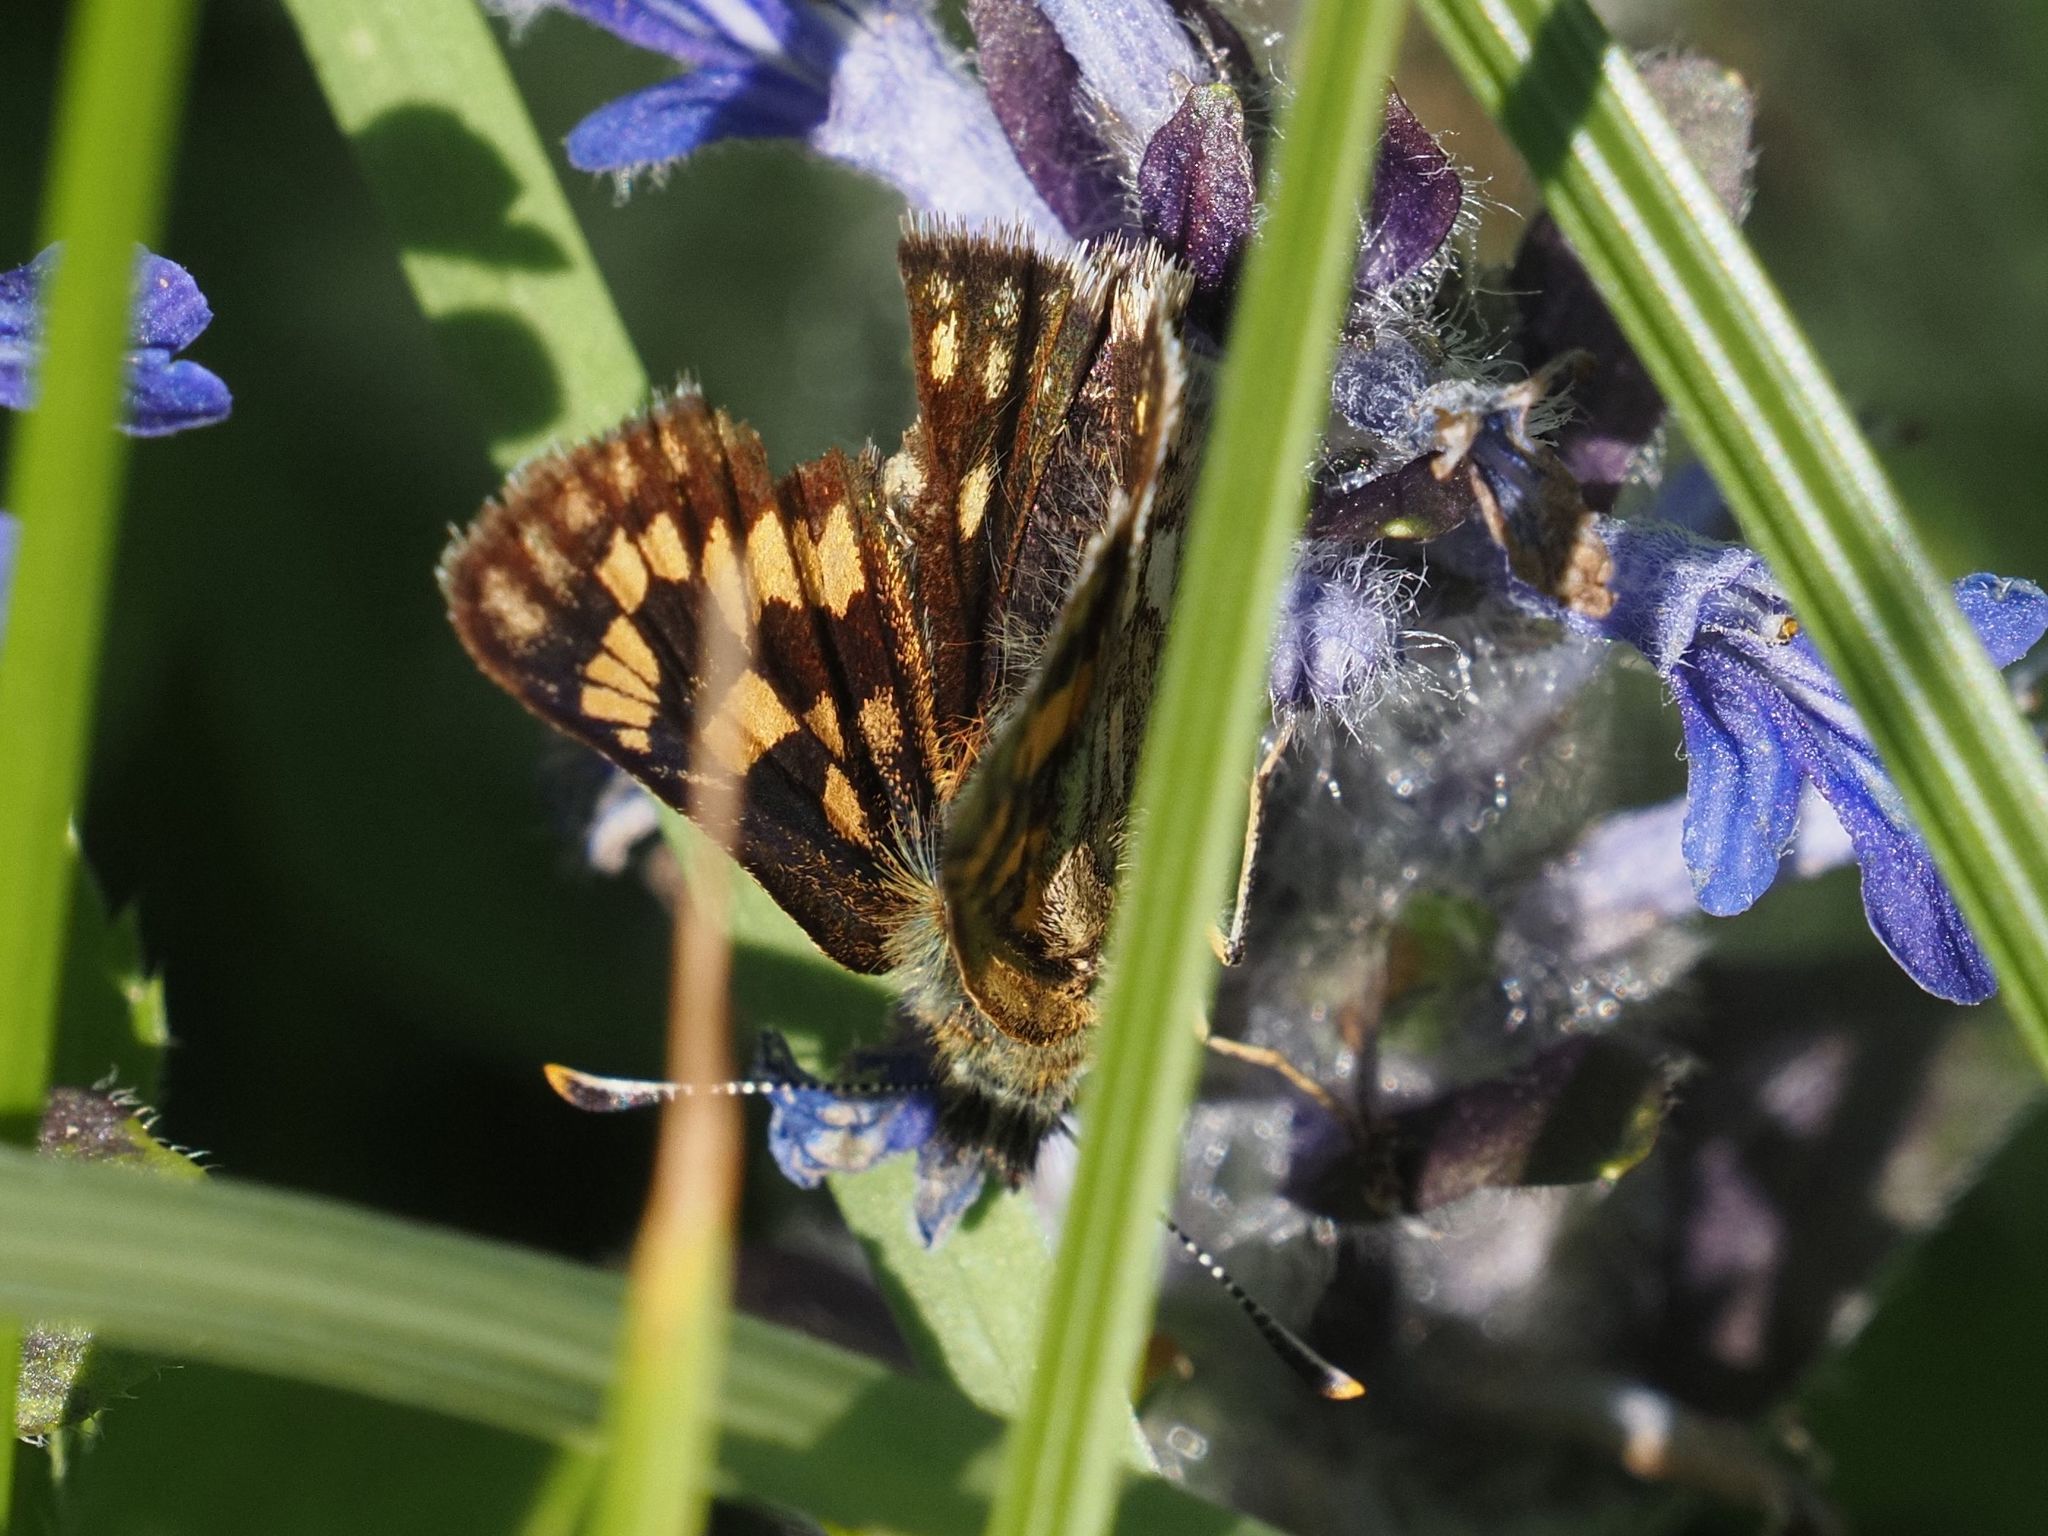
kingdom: Animalia
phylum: Arthropoda
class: Insecta
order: Lepidoptera
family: Hesperiidae
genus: Carterocephalus
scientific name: Carterocephalus palaemon
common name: Chequered skipper
